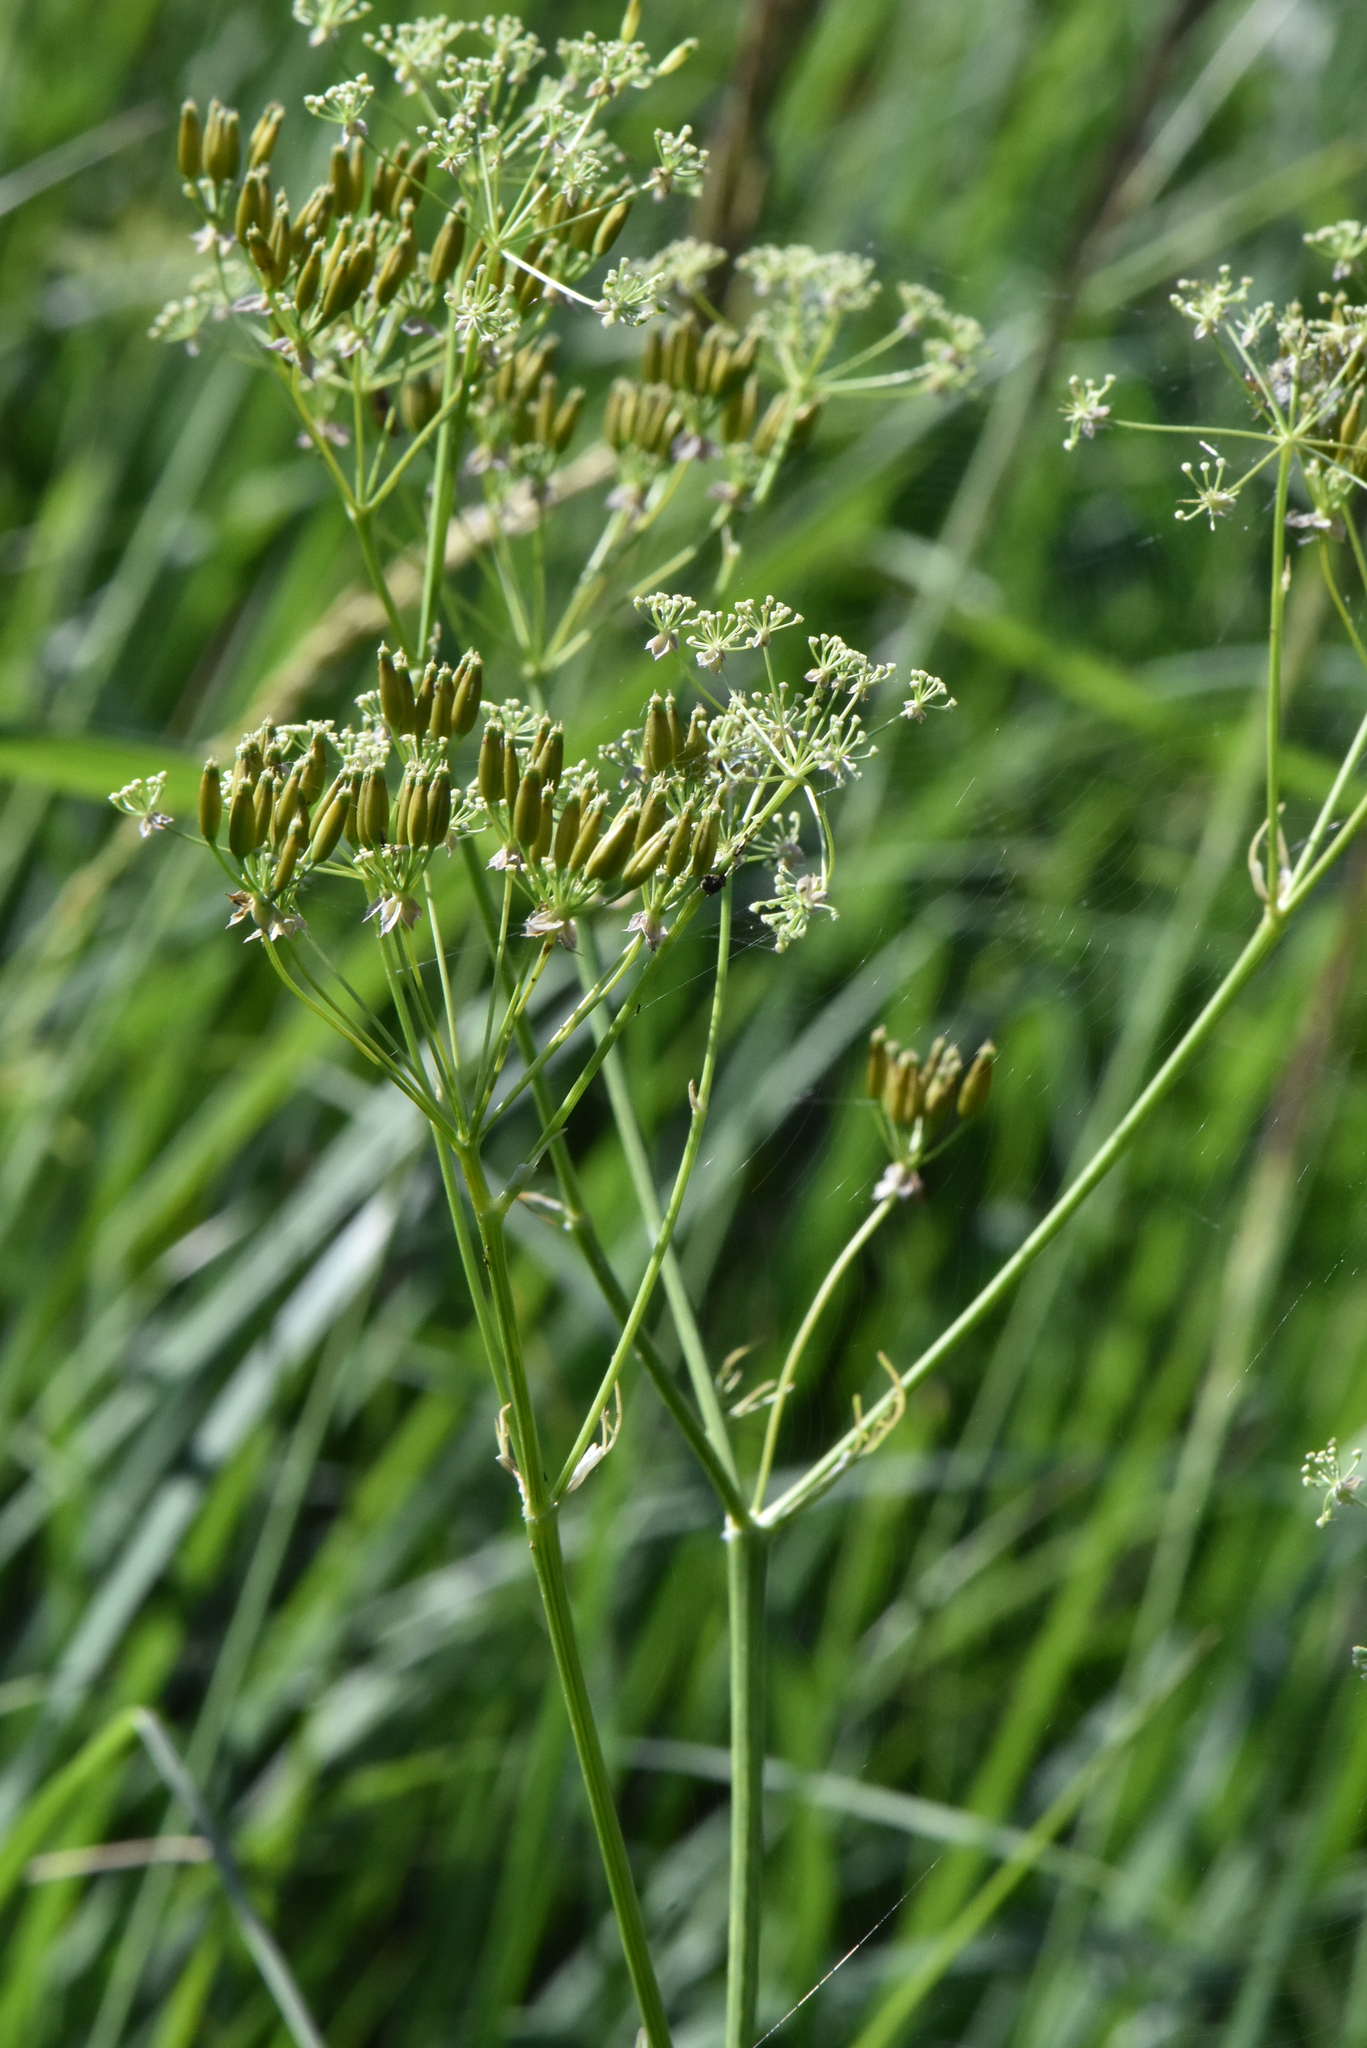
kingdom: Plantae
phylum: Tracheophyta
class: Magnoliopsida
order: Apiales
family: Apiaceae
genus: Anthriscus
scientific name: Anthriscus sylvestris
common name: Cow parsley
